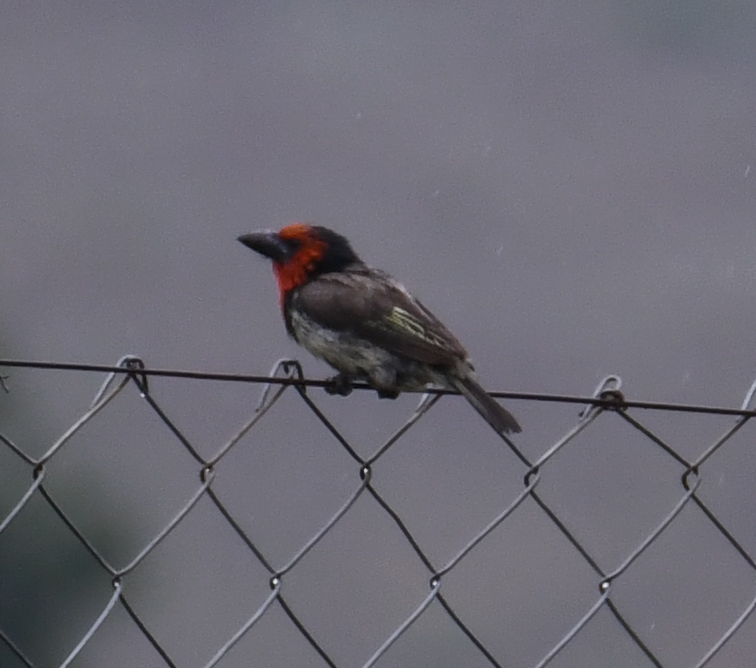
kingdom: Animalia
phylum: Chordata
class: Aves
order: Piciformes
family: Lybiidae
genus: Lybius
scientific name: Lybius torquatus
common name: Black-collared barbet
